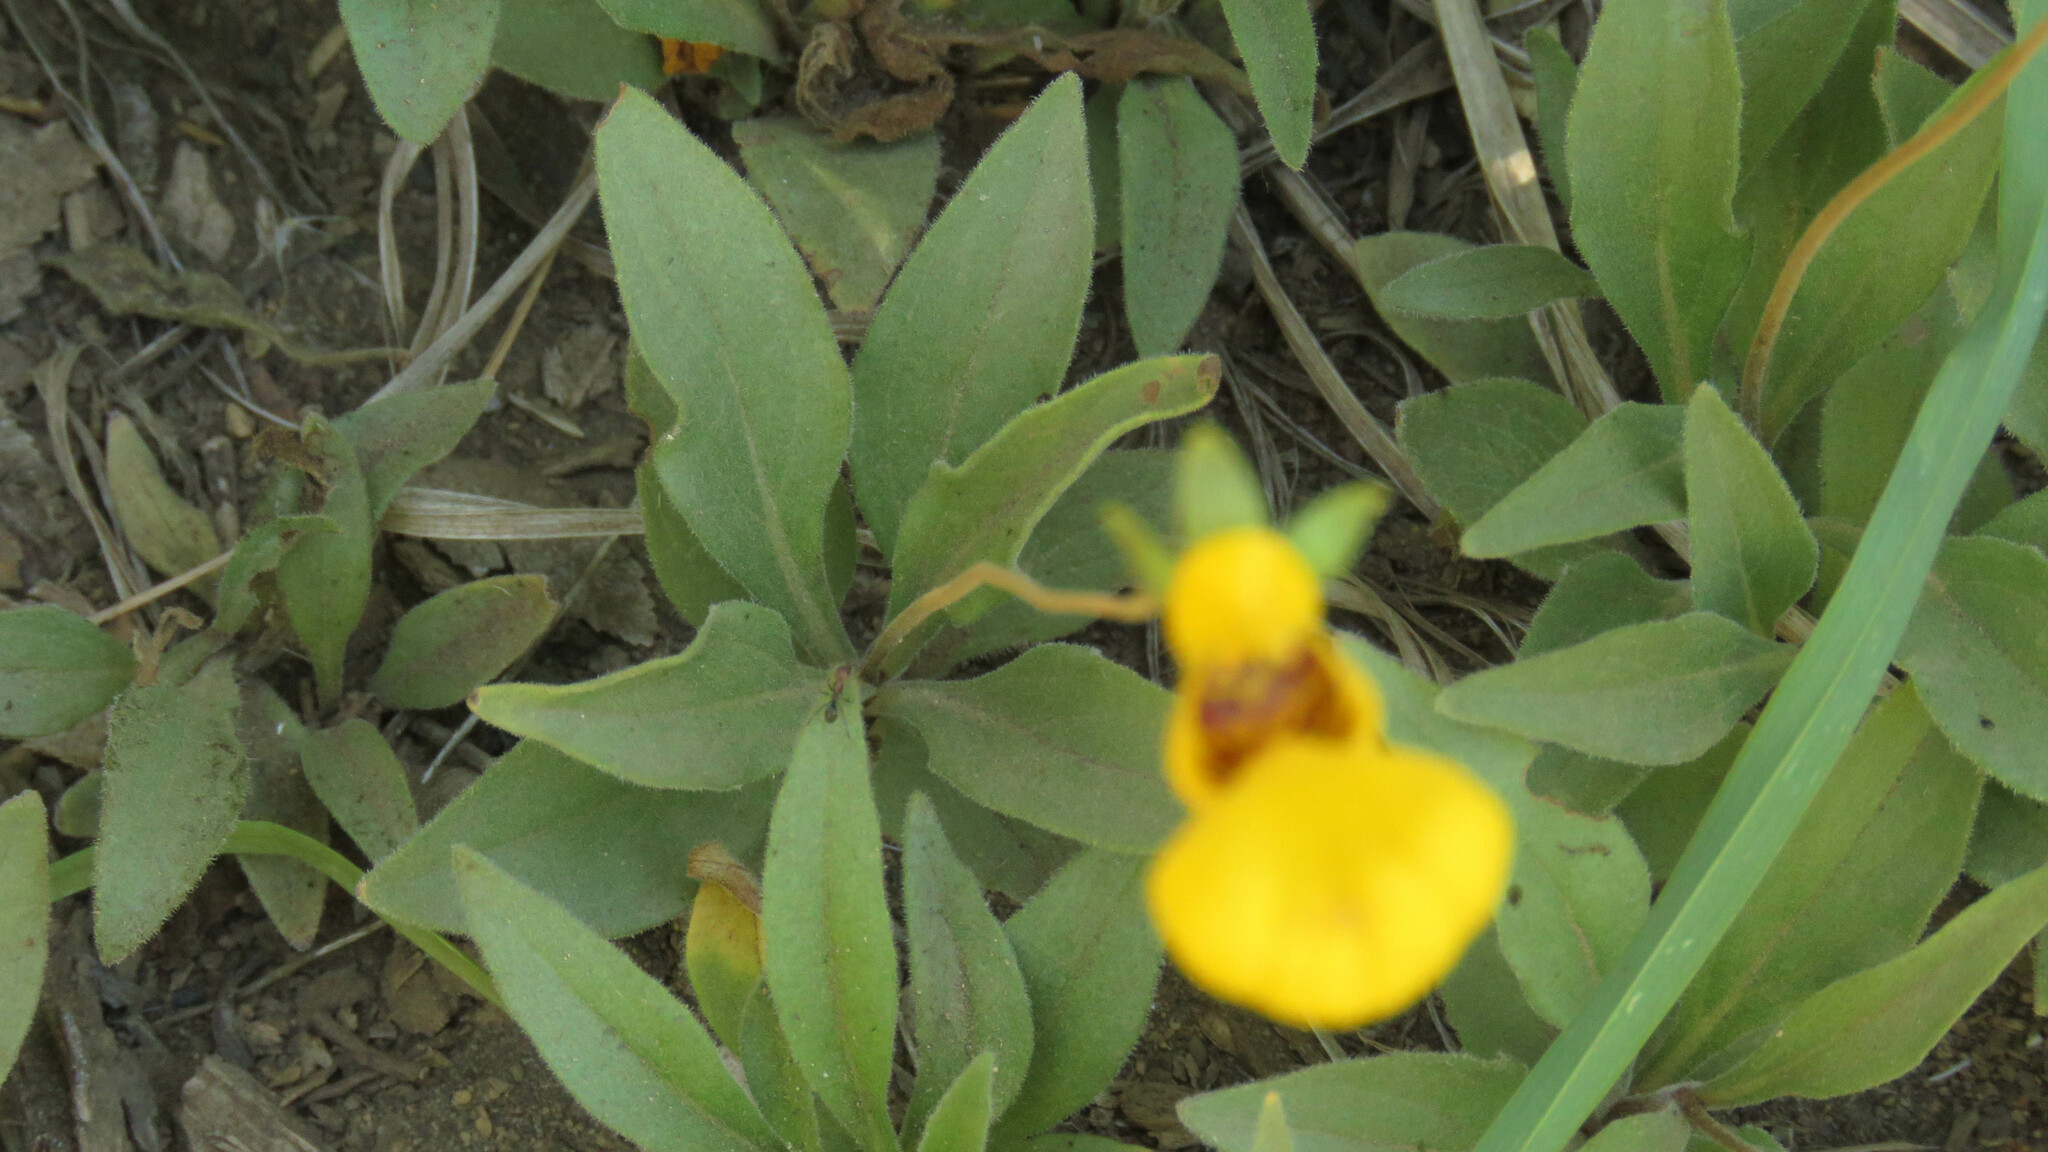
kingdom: Plantae
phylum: Tracheophyta
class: Magnoliopsida
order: Lamiales
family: Calceolariaceae
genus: Calceolaria
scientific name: Calceolaria polyrhiza
